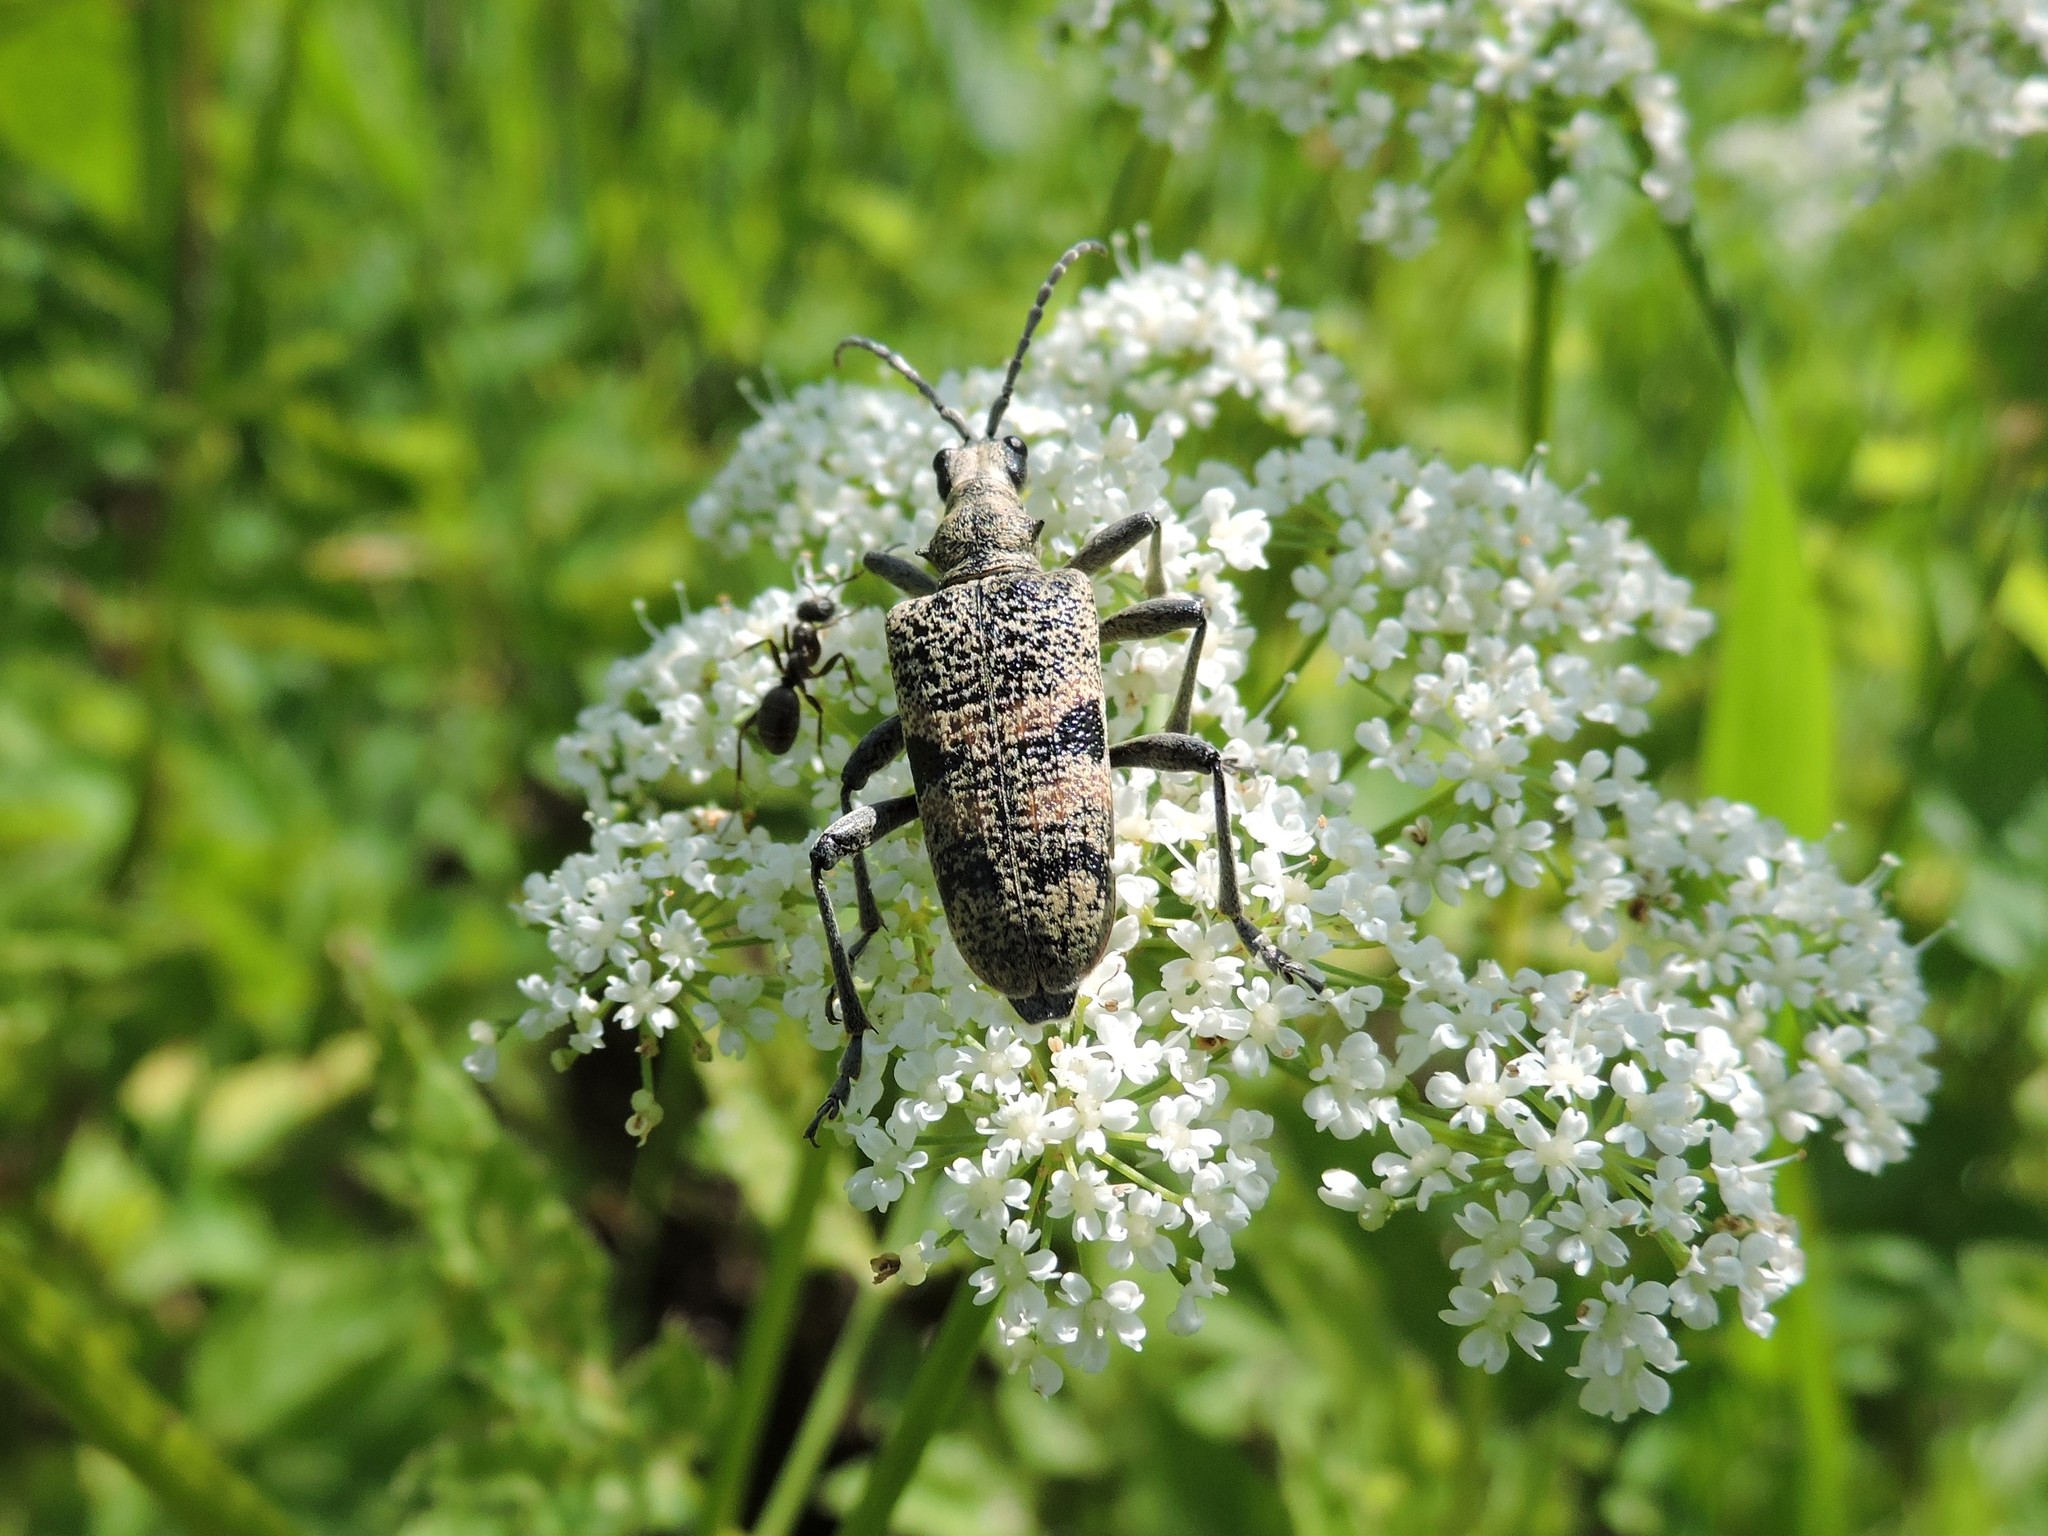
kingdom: Animalia
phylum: Arthropoda
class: Insecta
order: Coleoptera
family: Cerambycidae
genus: Rhagium
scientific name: Rhagium mordax
